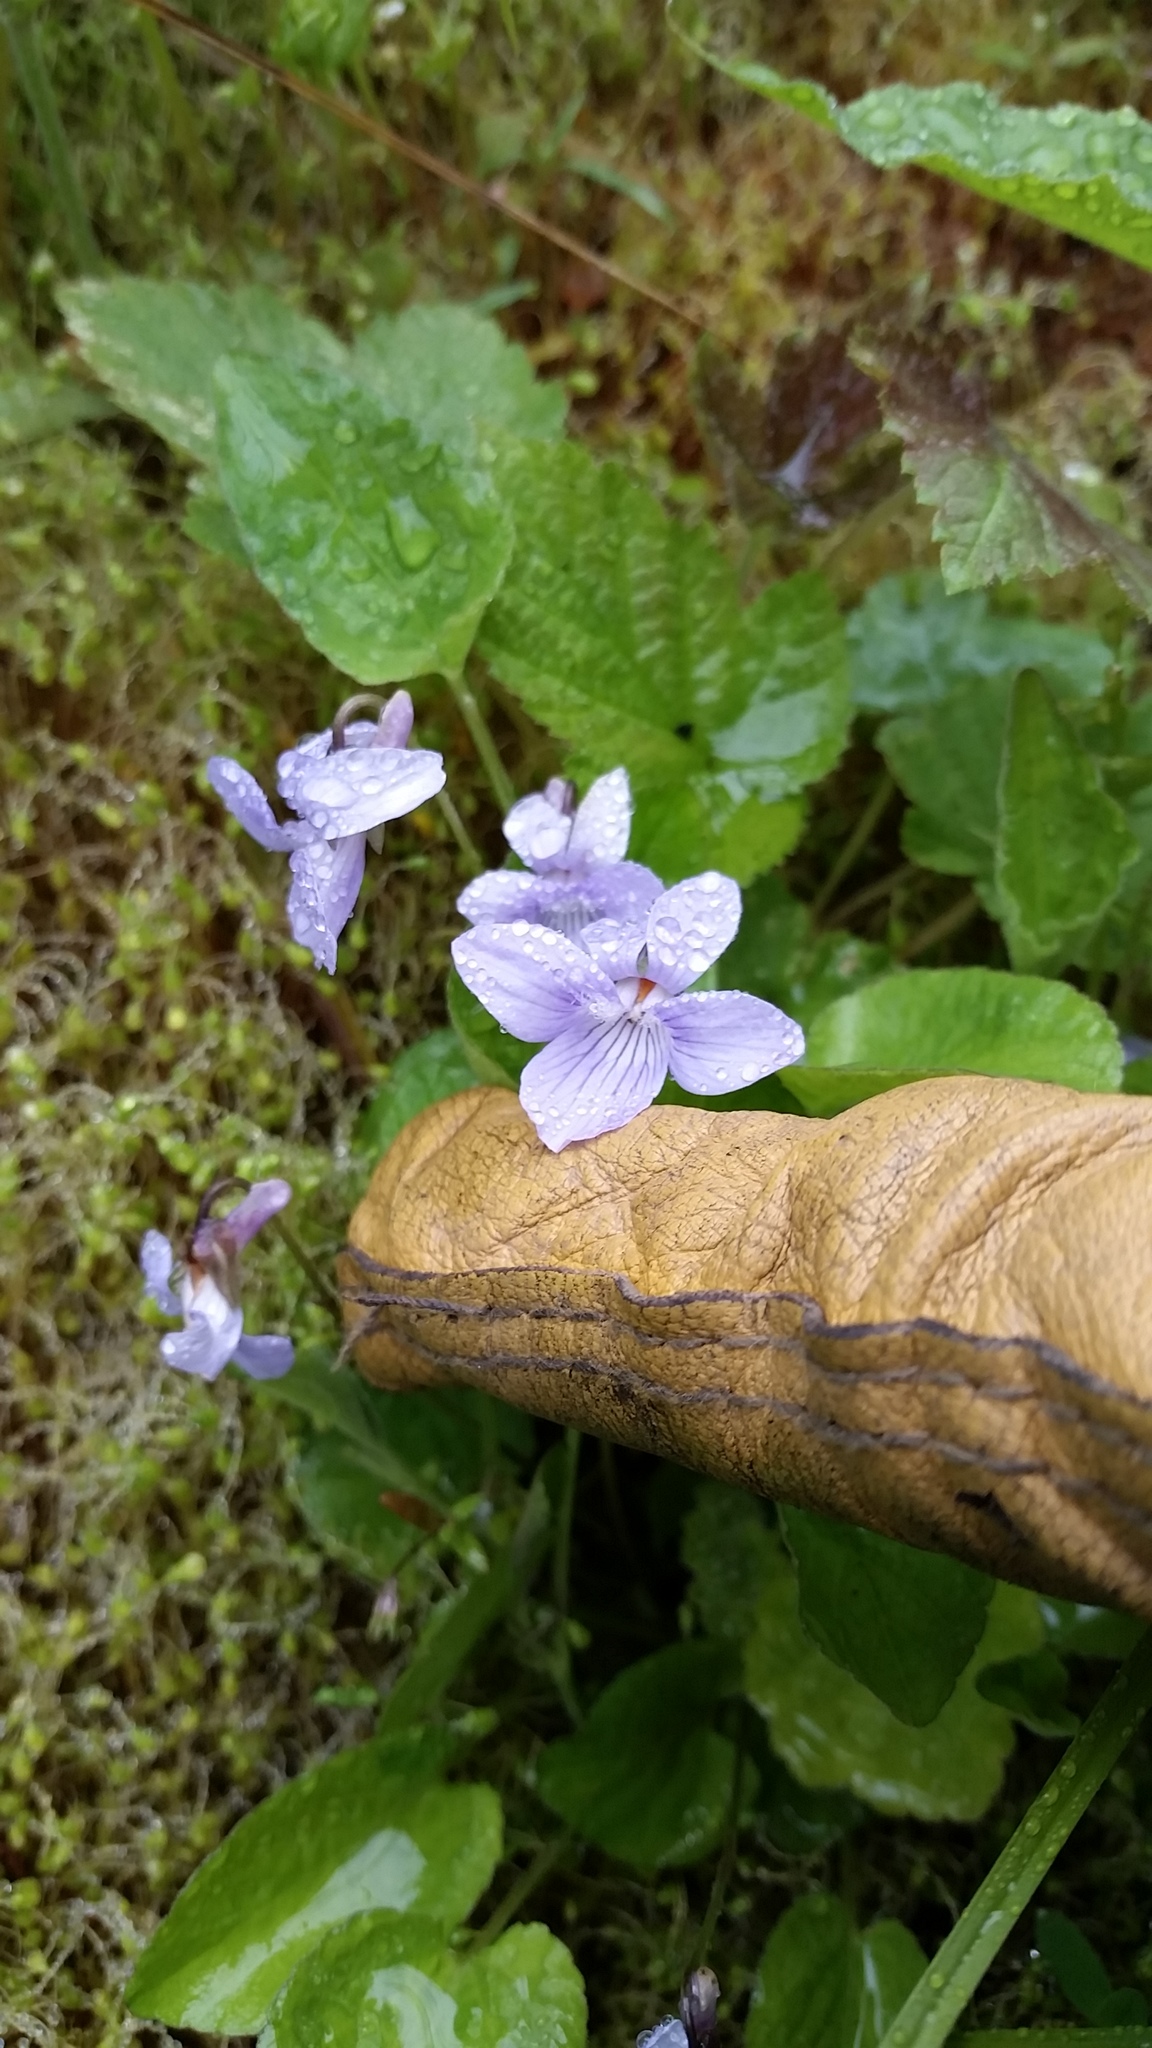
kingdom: Plantae
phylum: Tracheophyta
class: Magnoliopsida
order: Malpighiales
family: Violaceae
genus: Viola
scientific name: Viola adunca
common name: Sand violet
